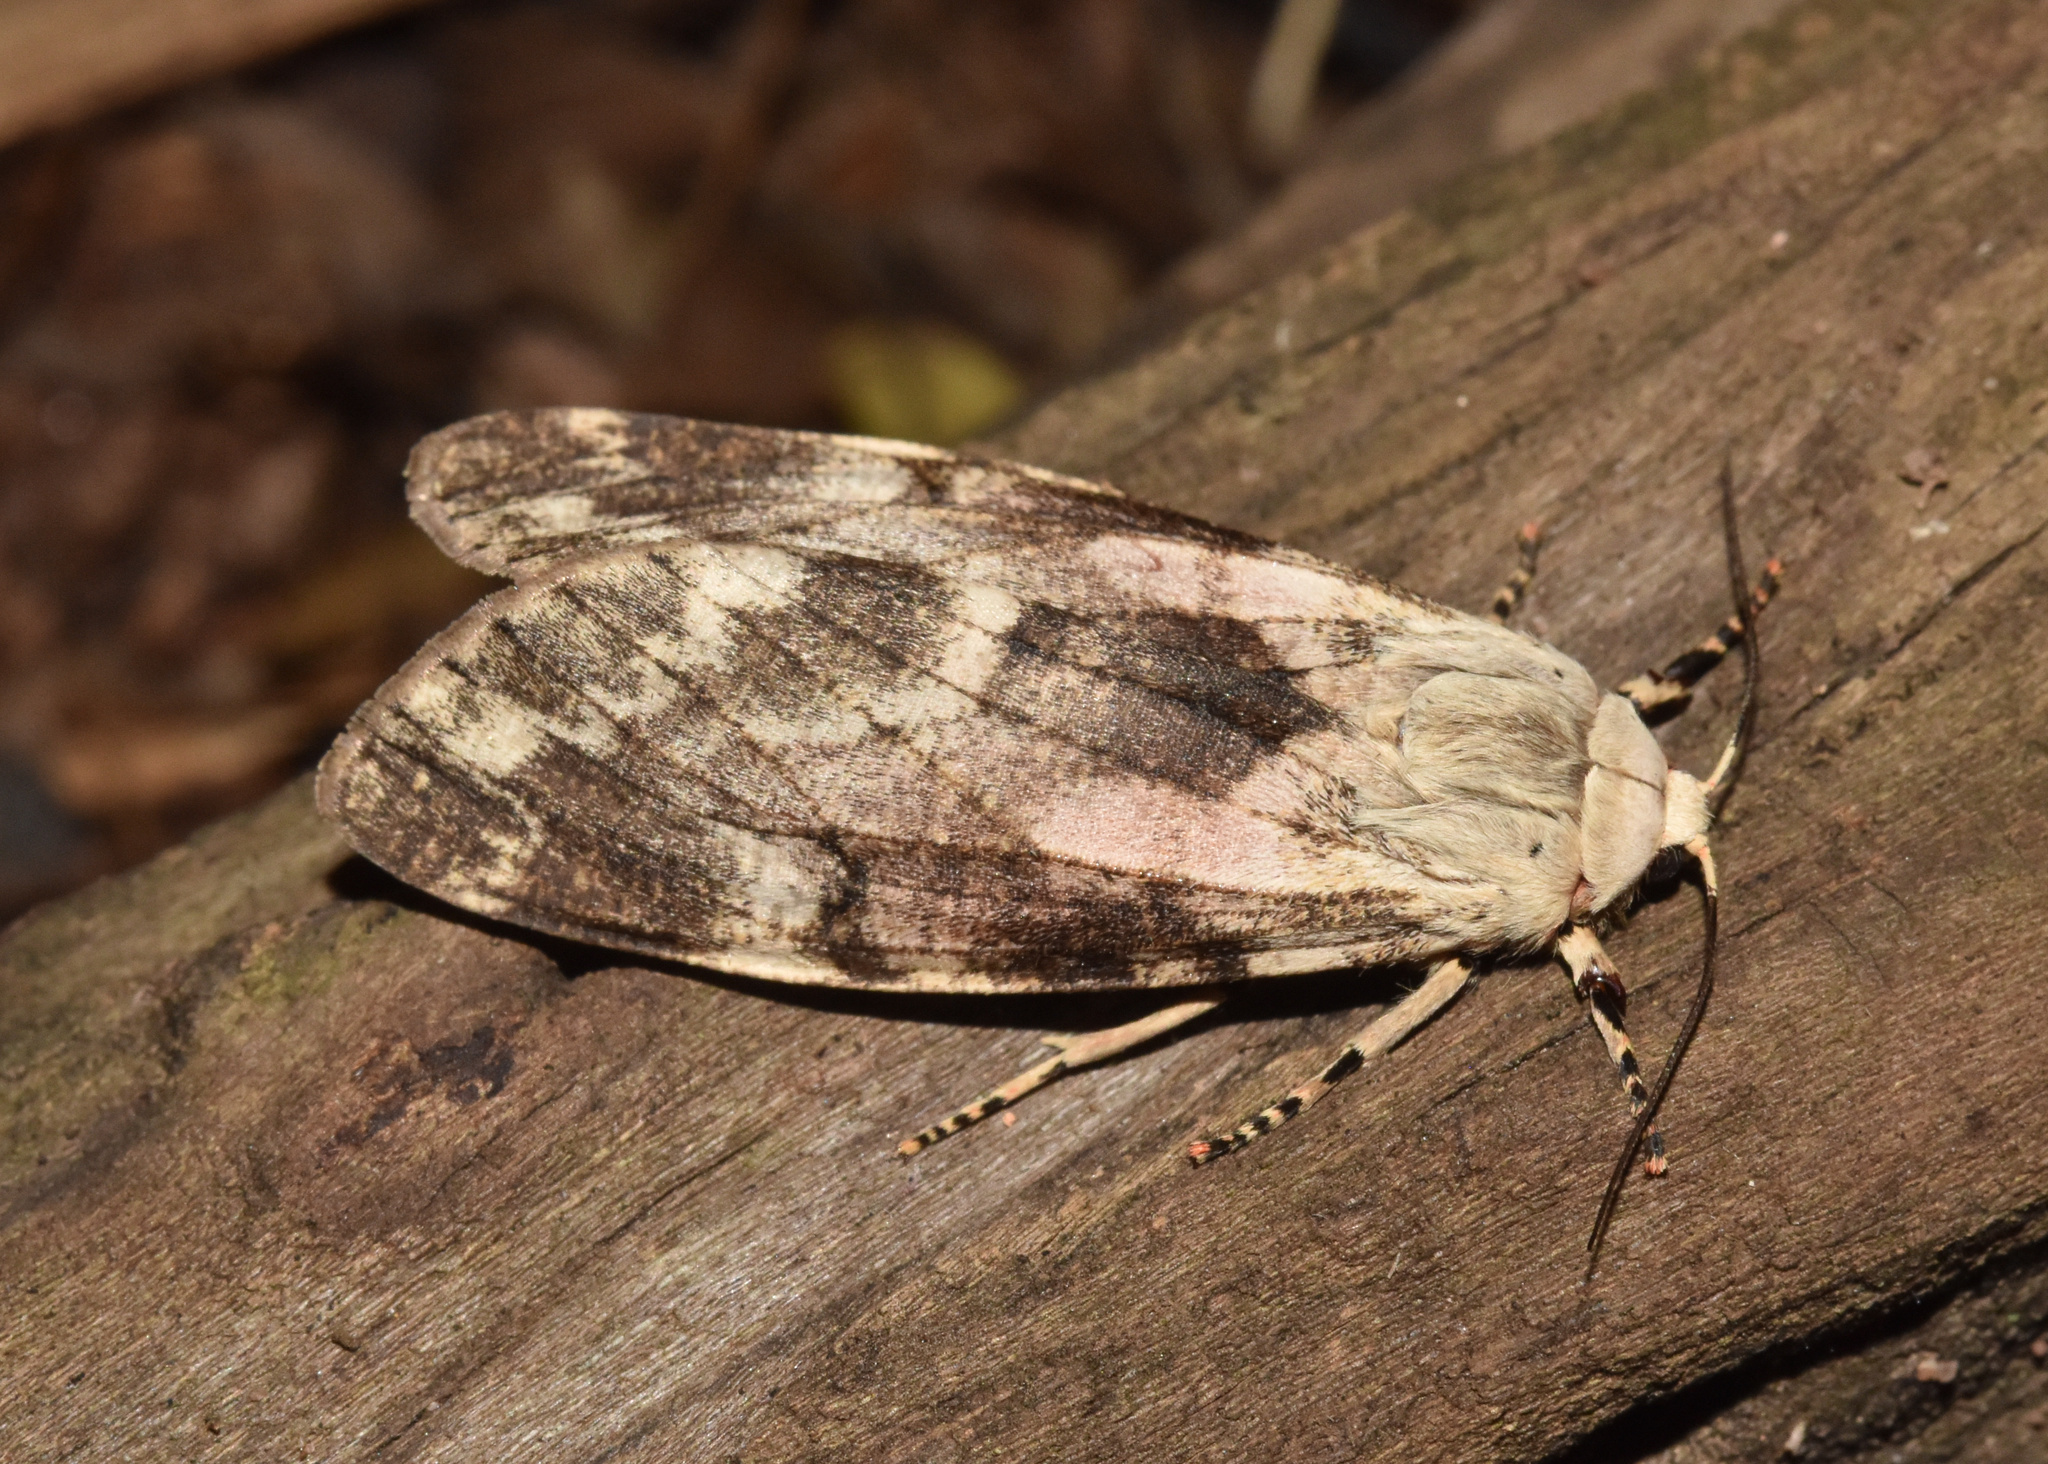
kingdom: Animalia
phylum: Arthropoda
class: Insecta
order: Lepidoptera
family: Erebidae
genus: Teracotona
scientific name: Teracotona submacula
